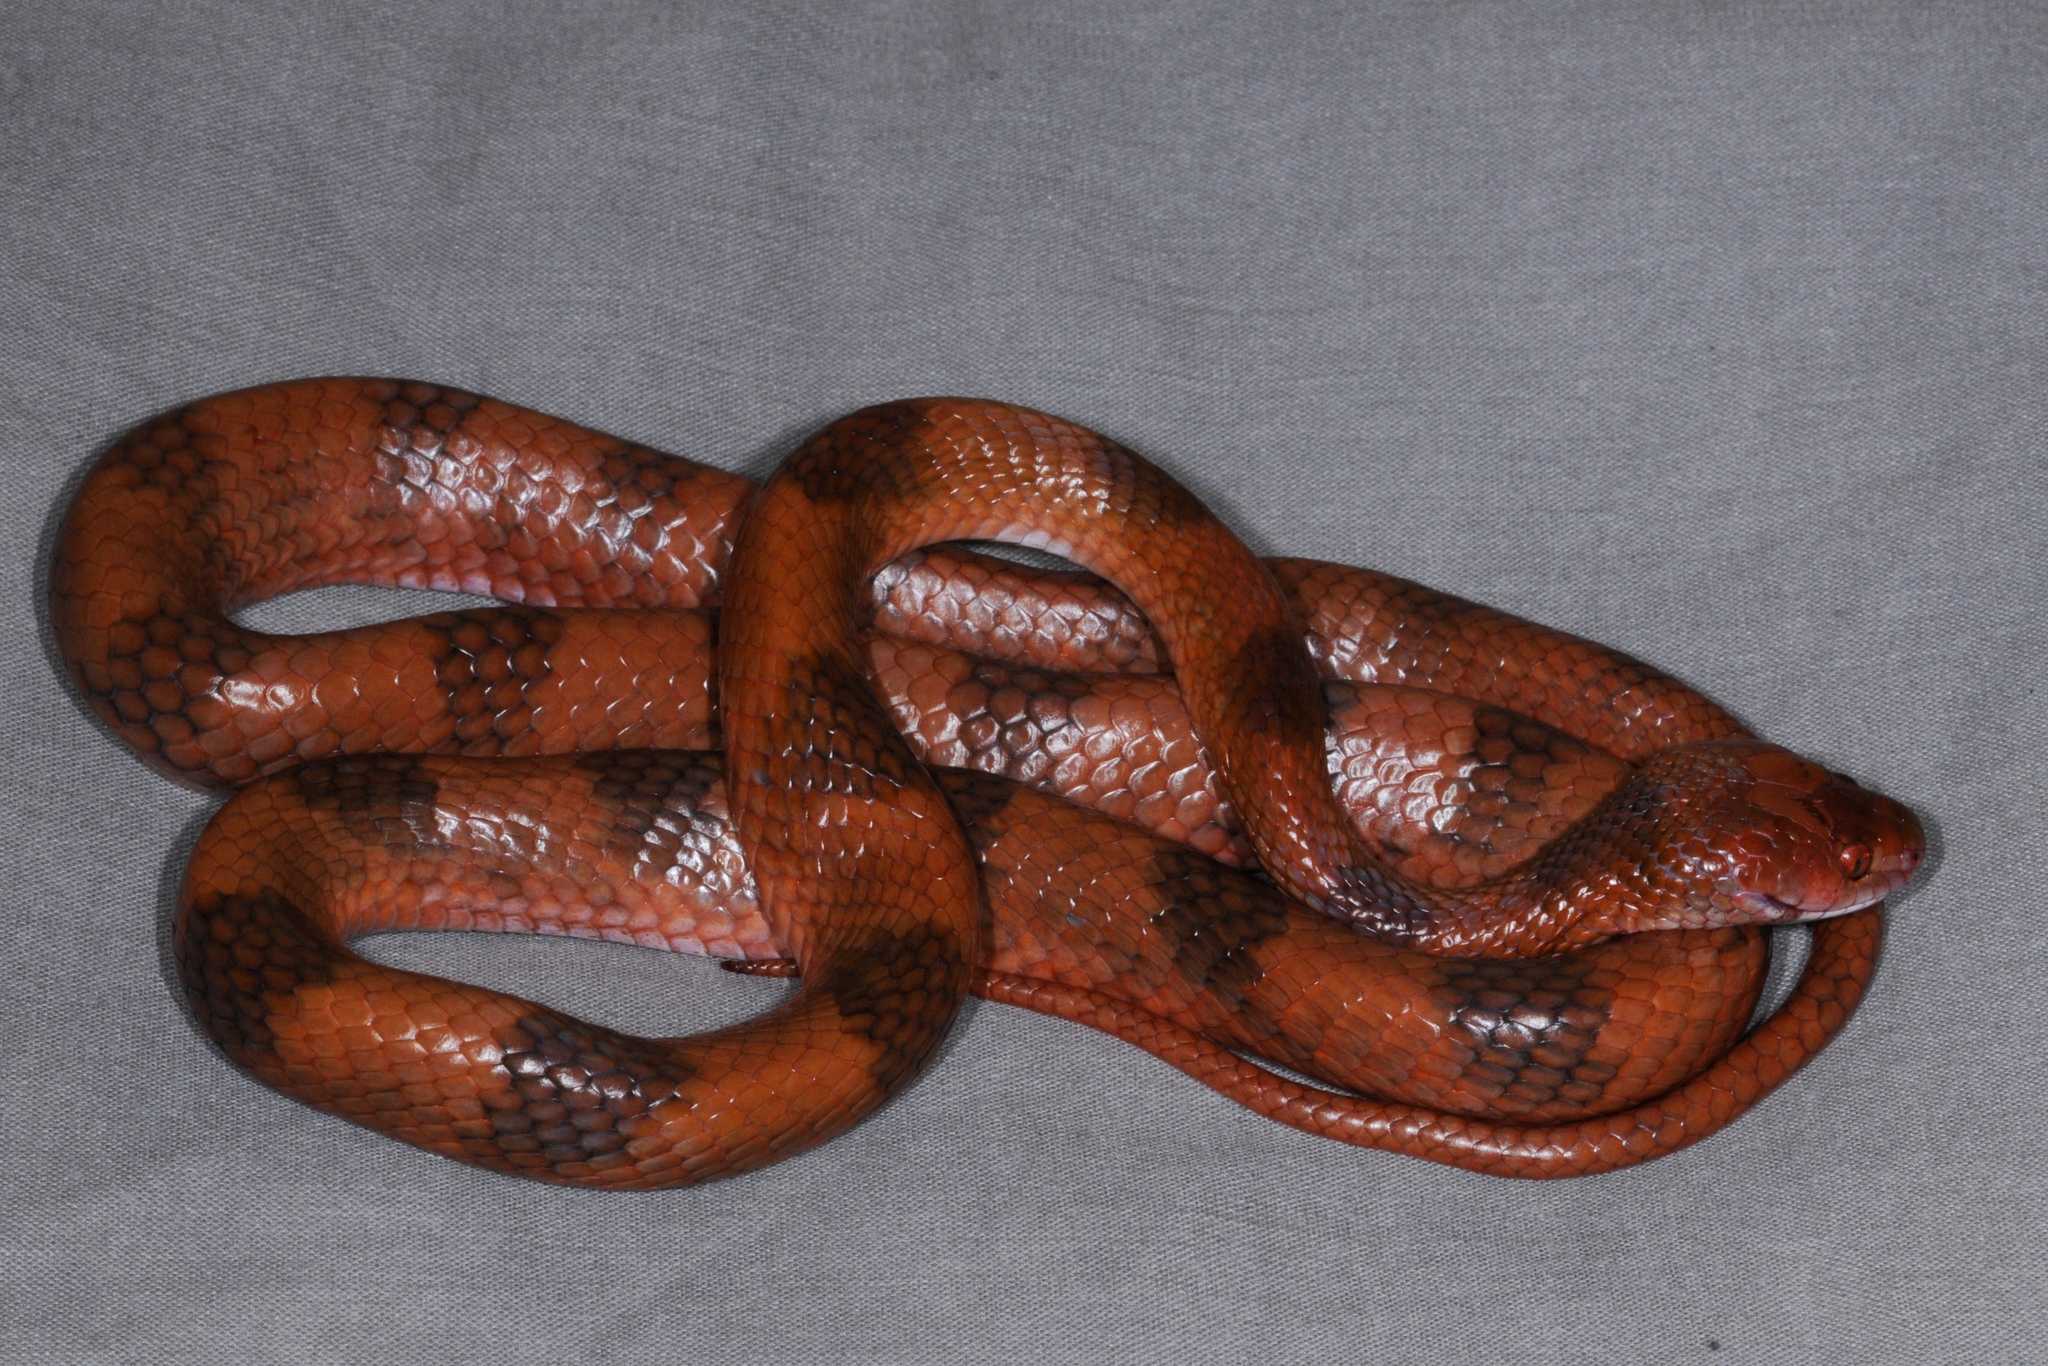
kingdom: Animalia
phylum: Chordata
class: Squamata
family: Colubridae
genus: Telescopus
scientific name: Telescopus semiannulatus
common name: Common tiger snake
